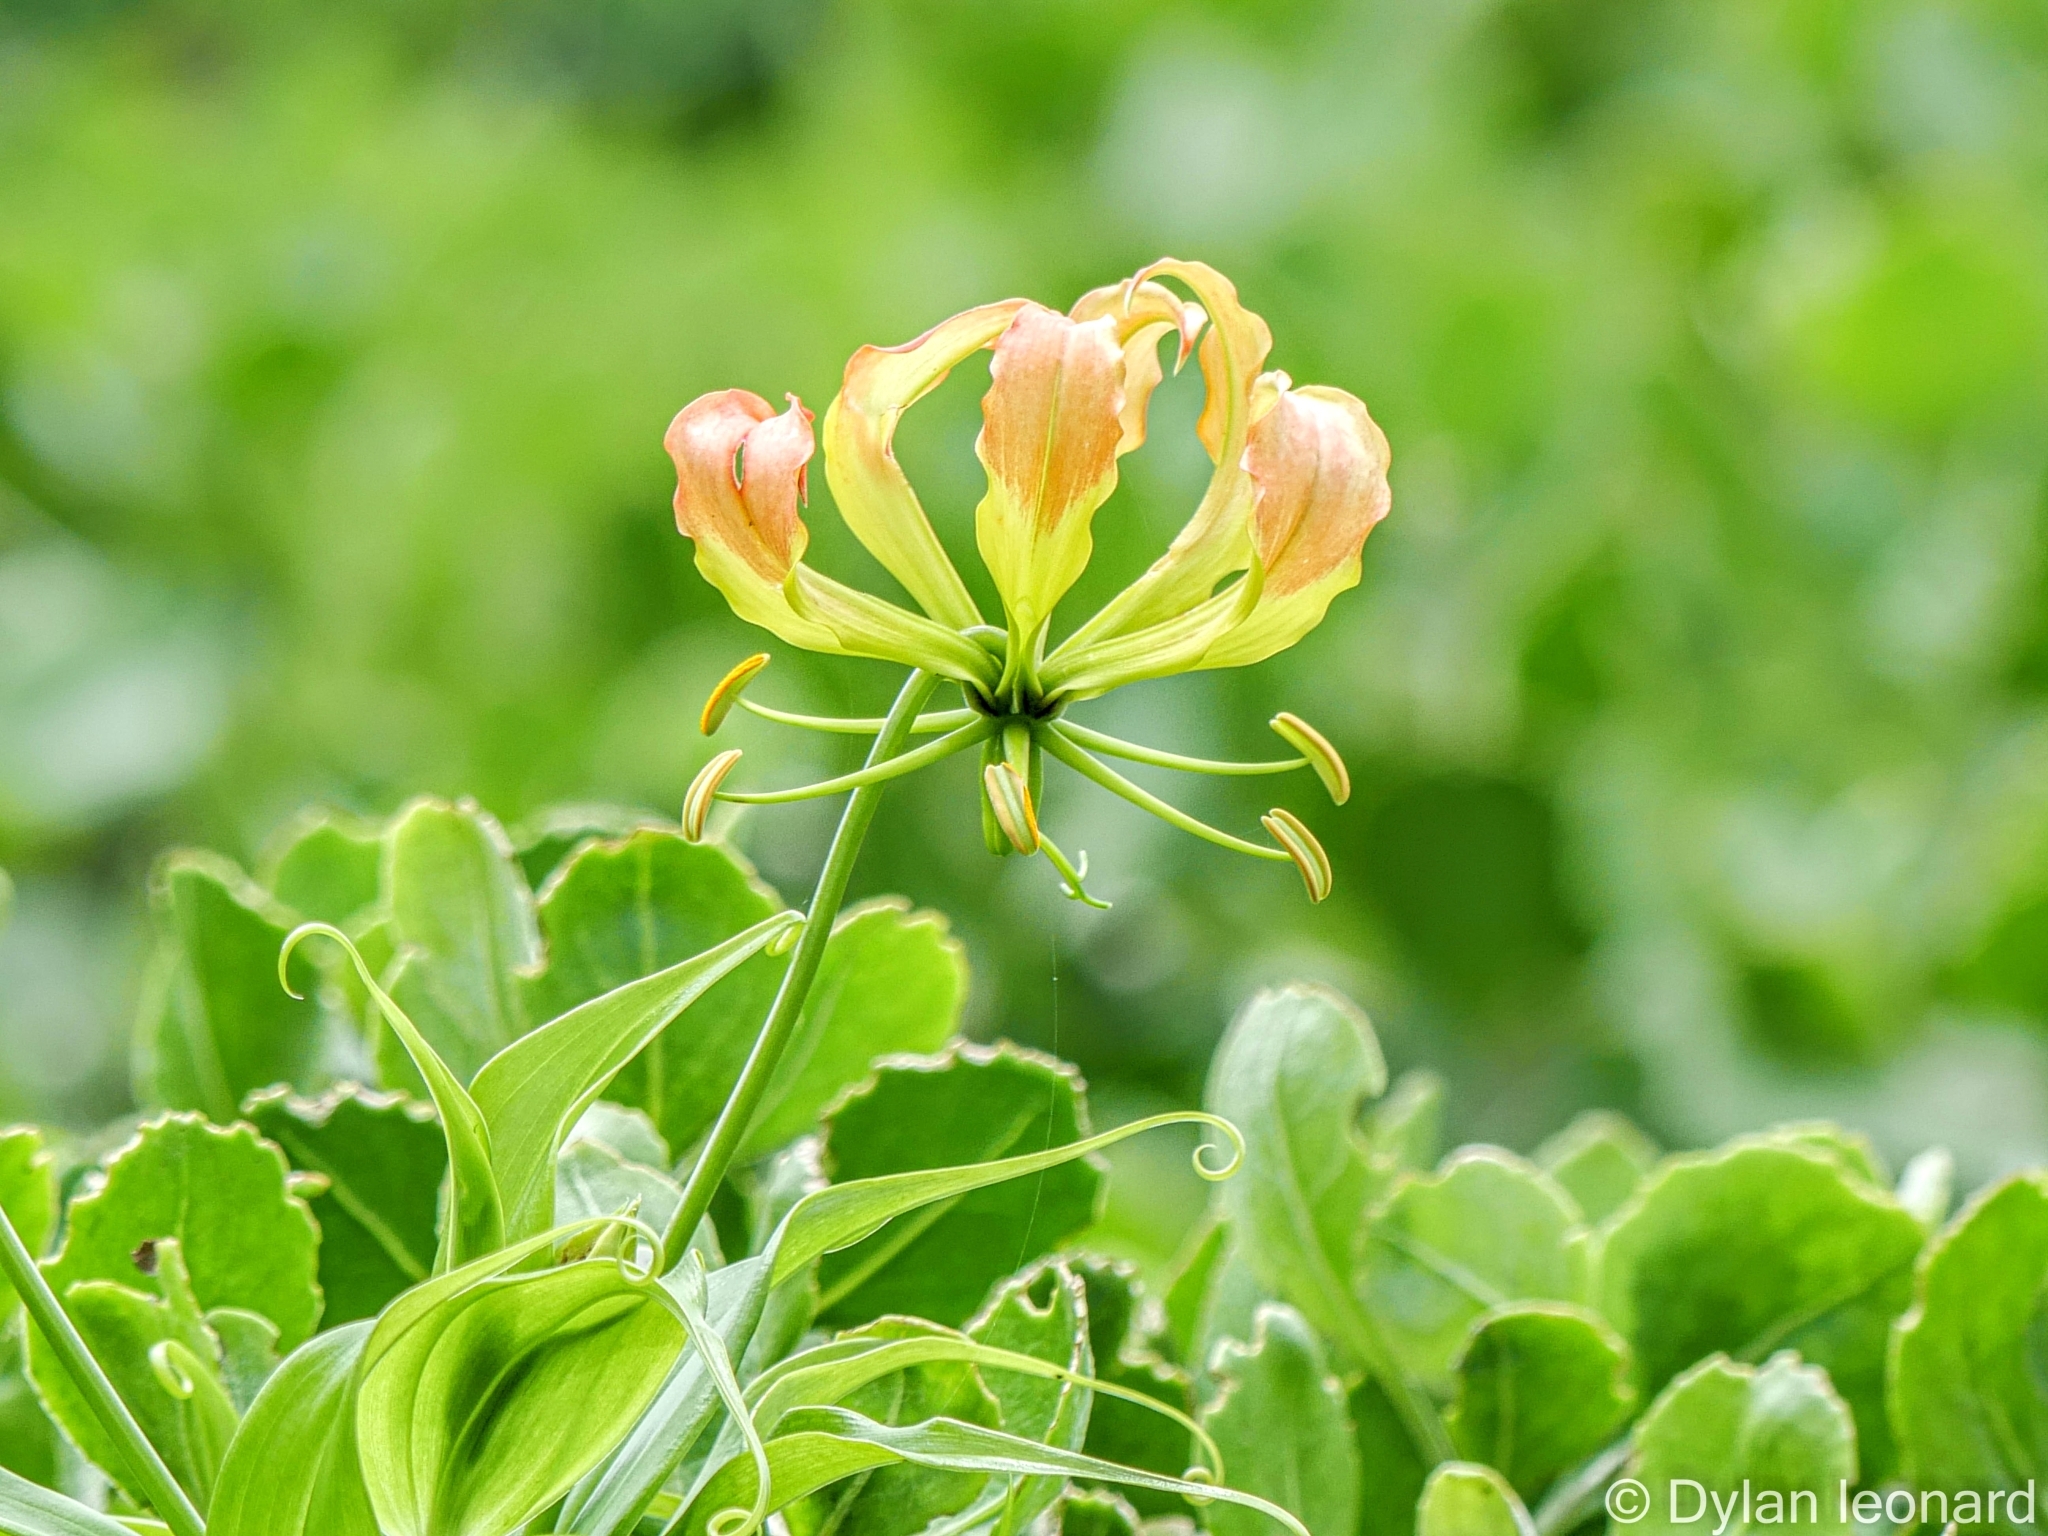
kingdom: Plantae
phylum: Tracheophyta
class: Liliopsida
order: Liliales
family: Colchicaceae
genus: Gloriosa
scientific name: Gloriosa superba
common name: Flame lily
